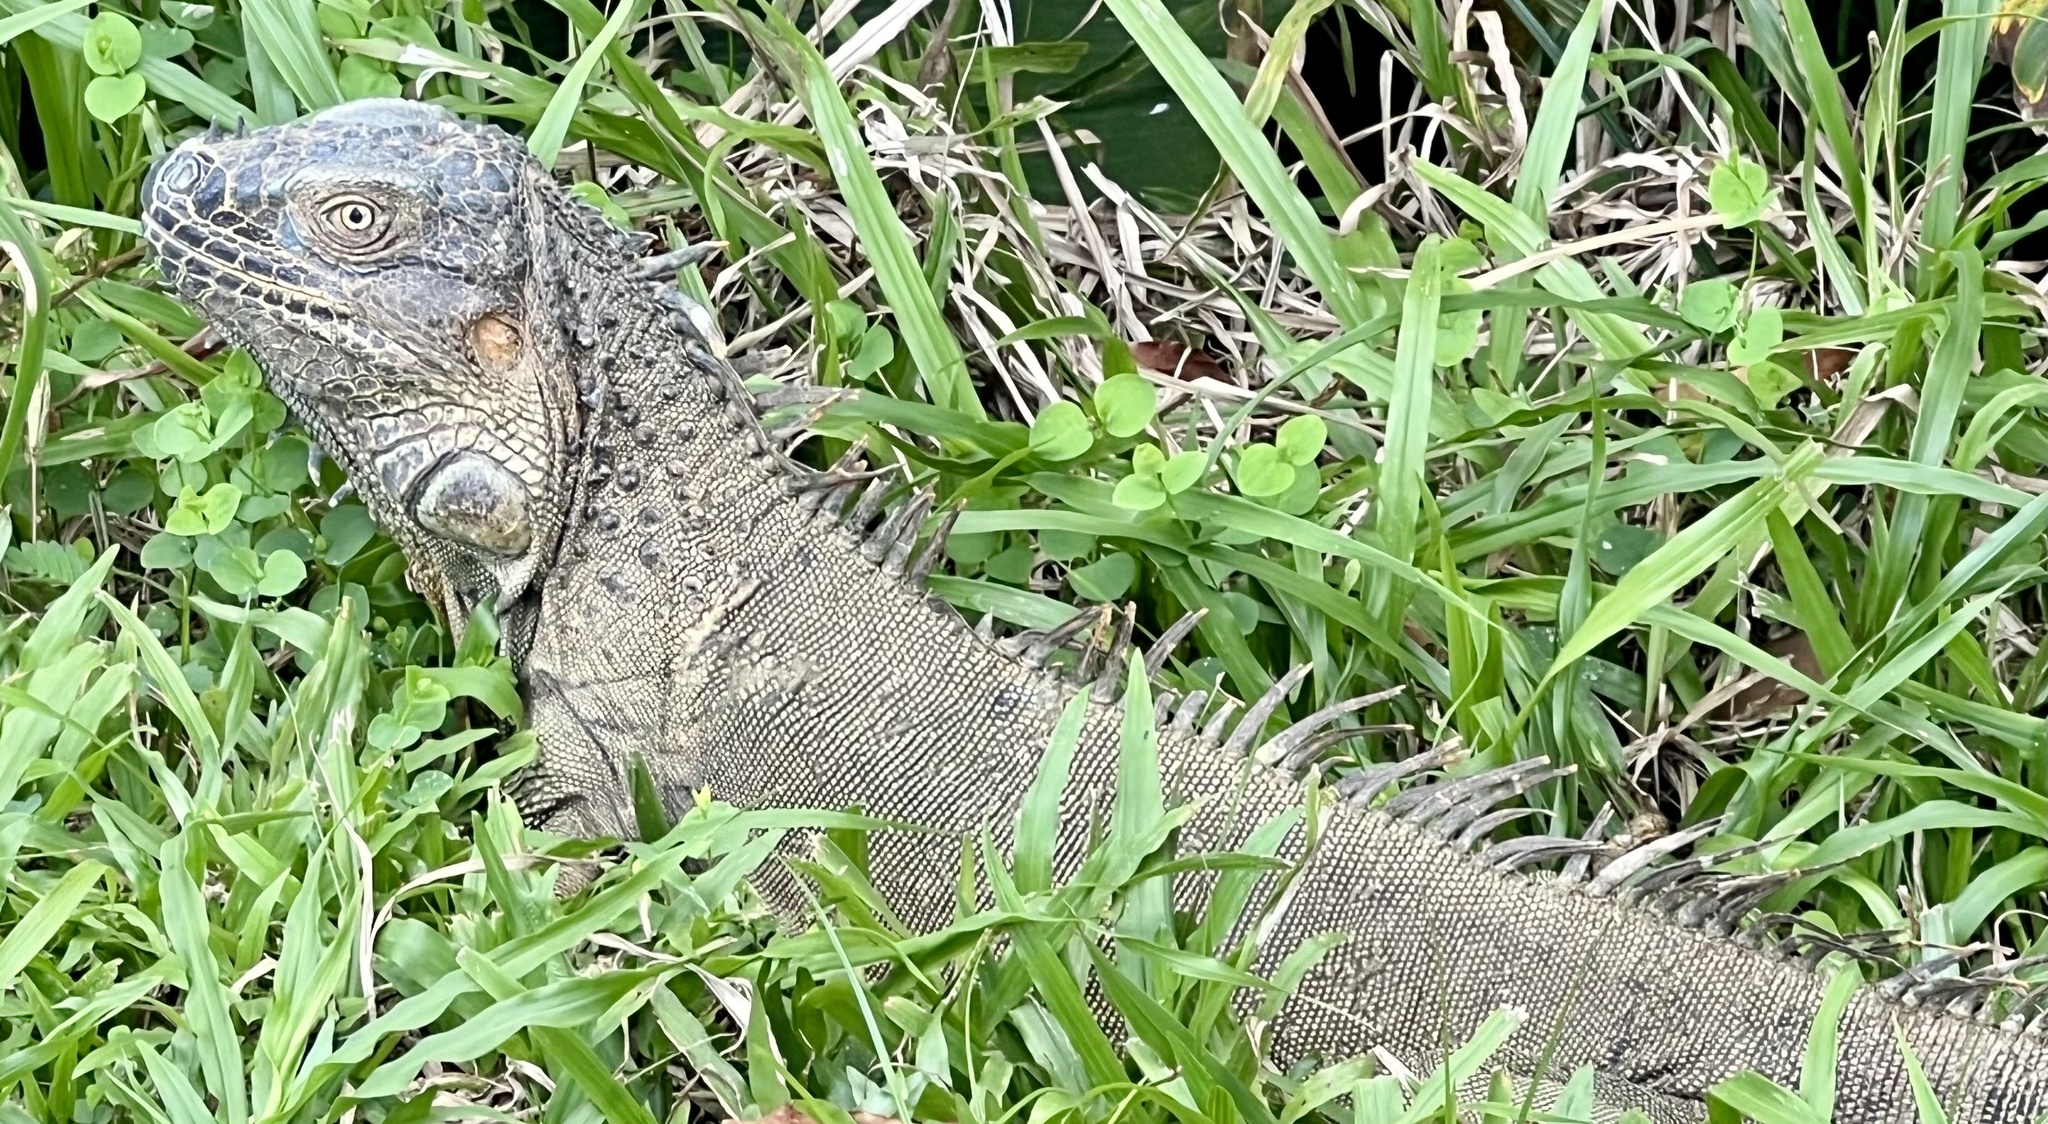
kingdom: Animalia
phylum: Chordata
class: Squamata
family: Iguanidae
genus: Iguana
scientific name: Iguana iguana
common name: Green iguana
